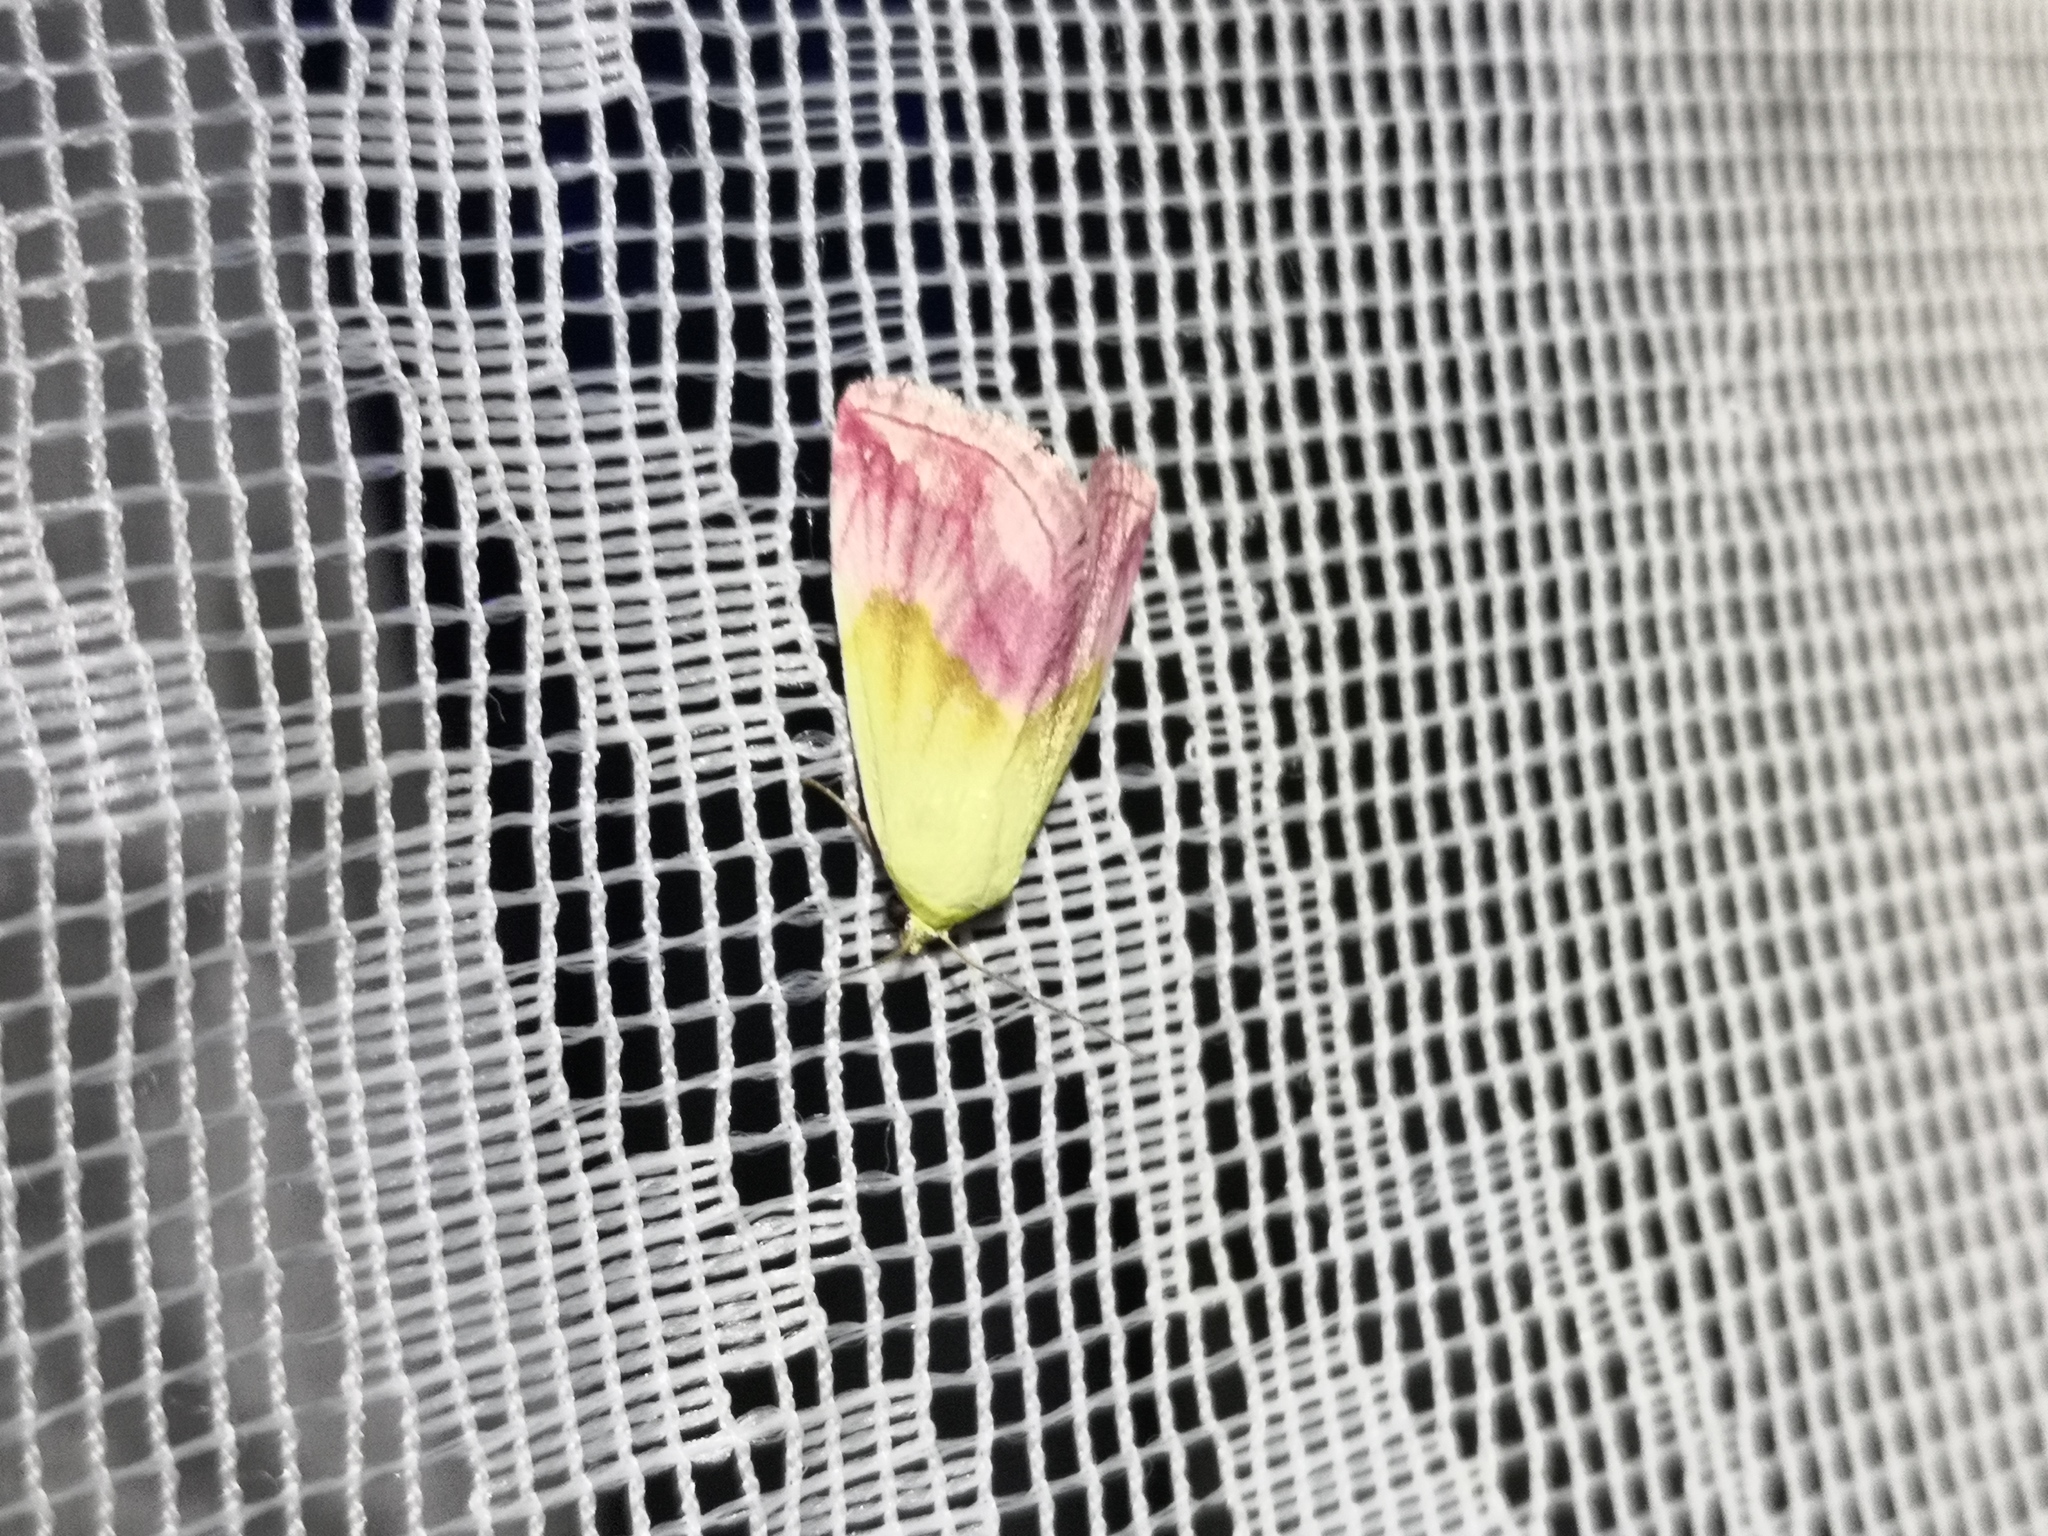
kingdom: Animalia
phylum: Arthropoda
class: Insecta
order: Lepidoptera
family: Noctuidae
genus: Eublemma
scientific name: Eublemma purpurina
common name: Beautiful marbled
